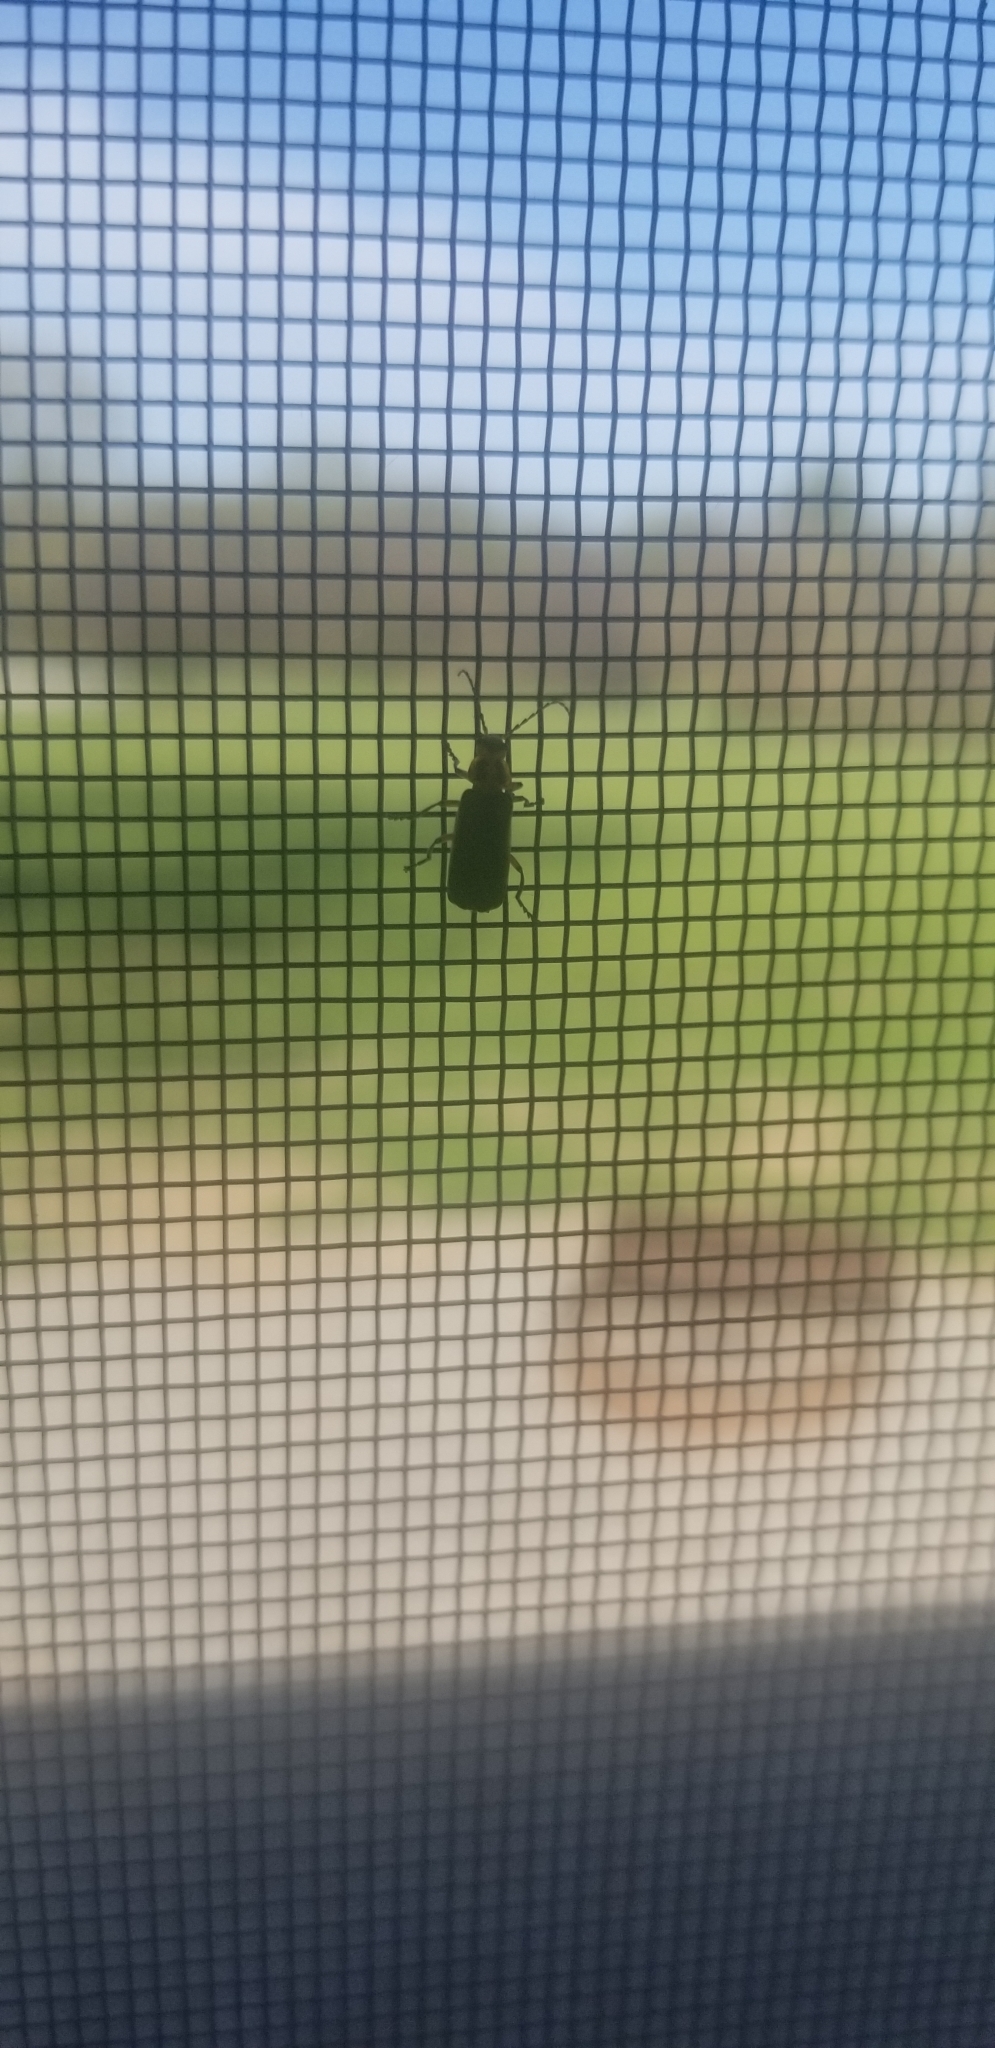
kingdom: Animalia
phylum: Arthropoda
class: Insecta
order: Coleoptera
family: Cantharidae
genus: Atalantycha
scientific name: Atalantycha bilineata
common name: Two-lined leatherwing
